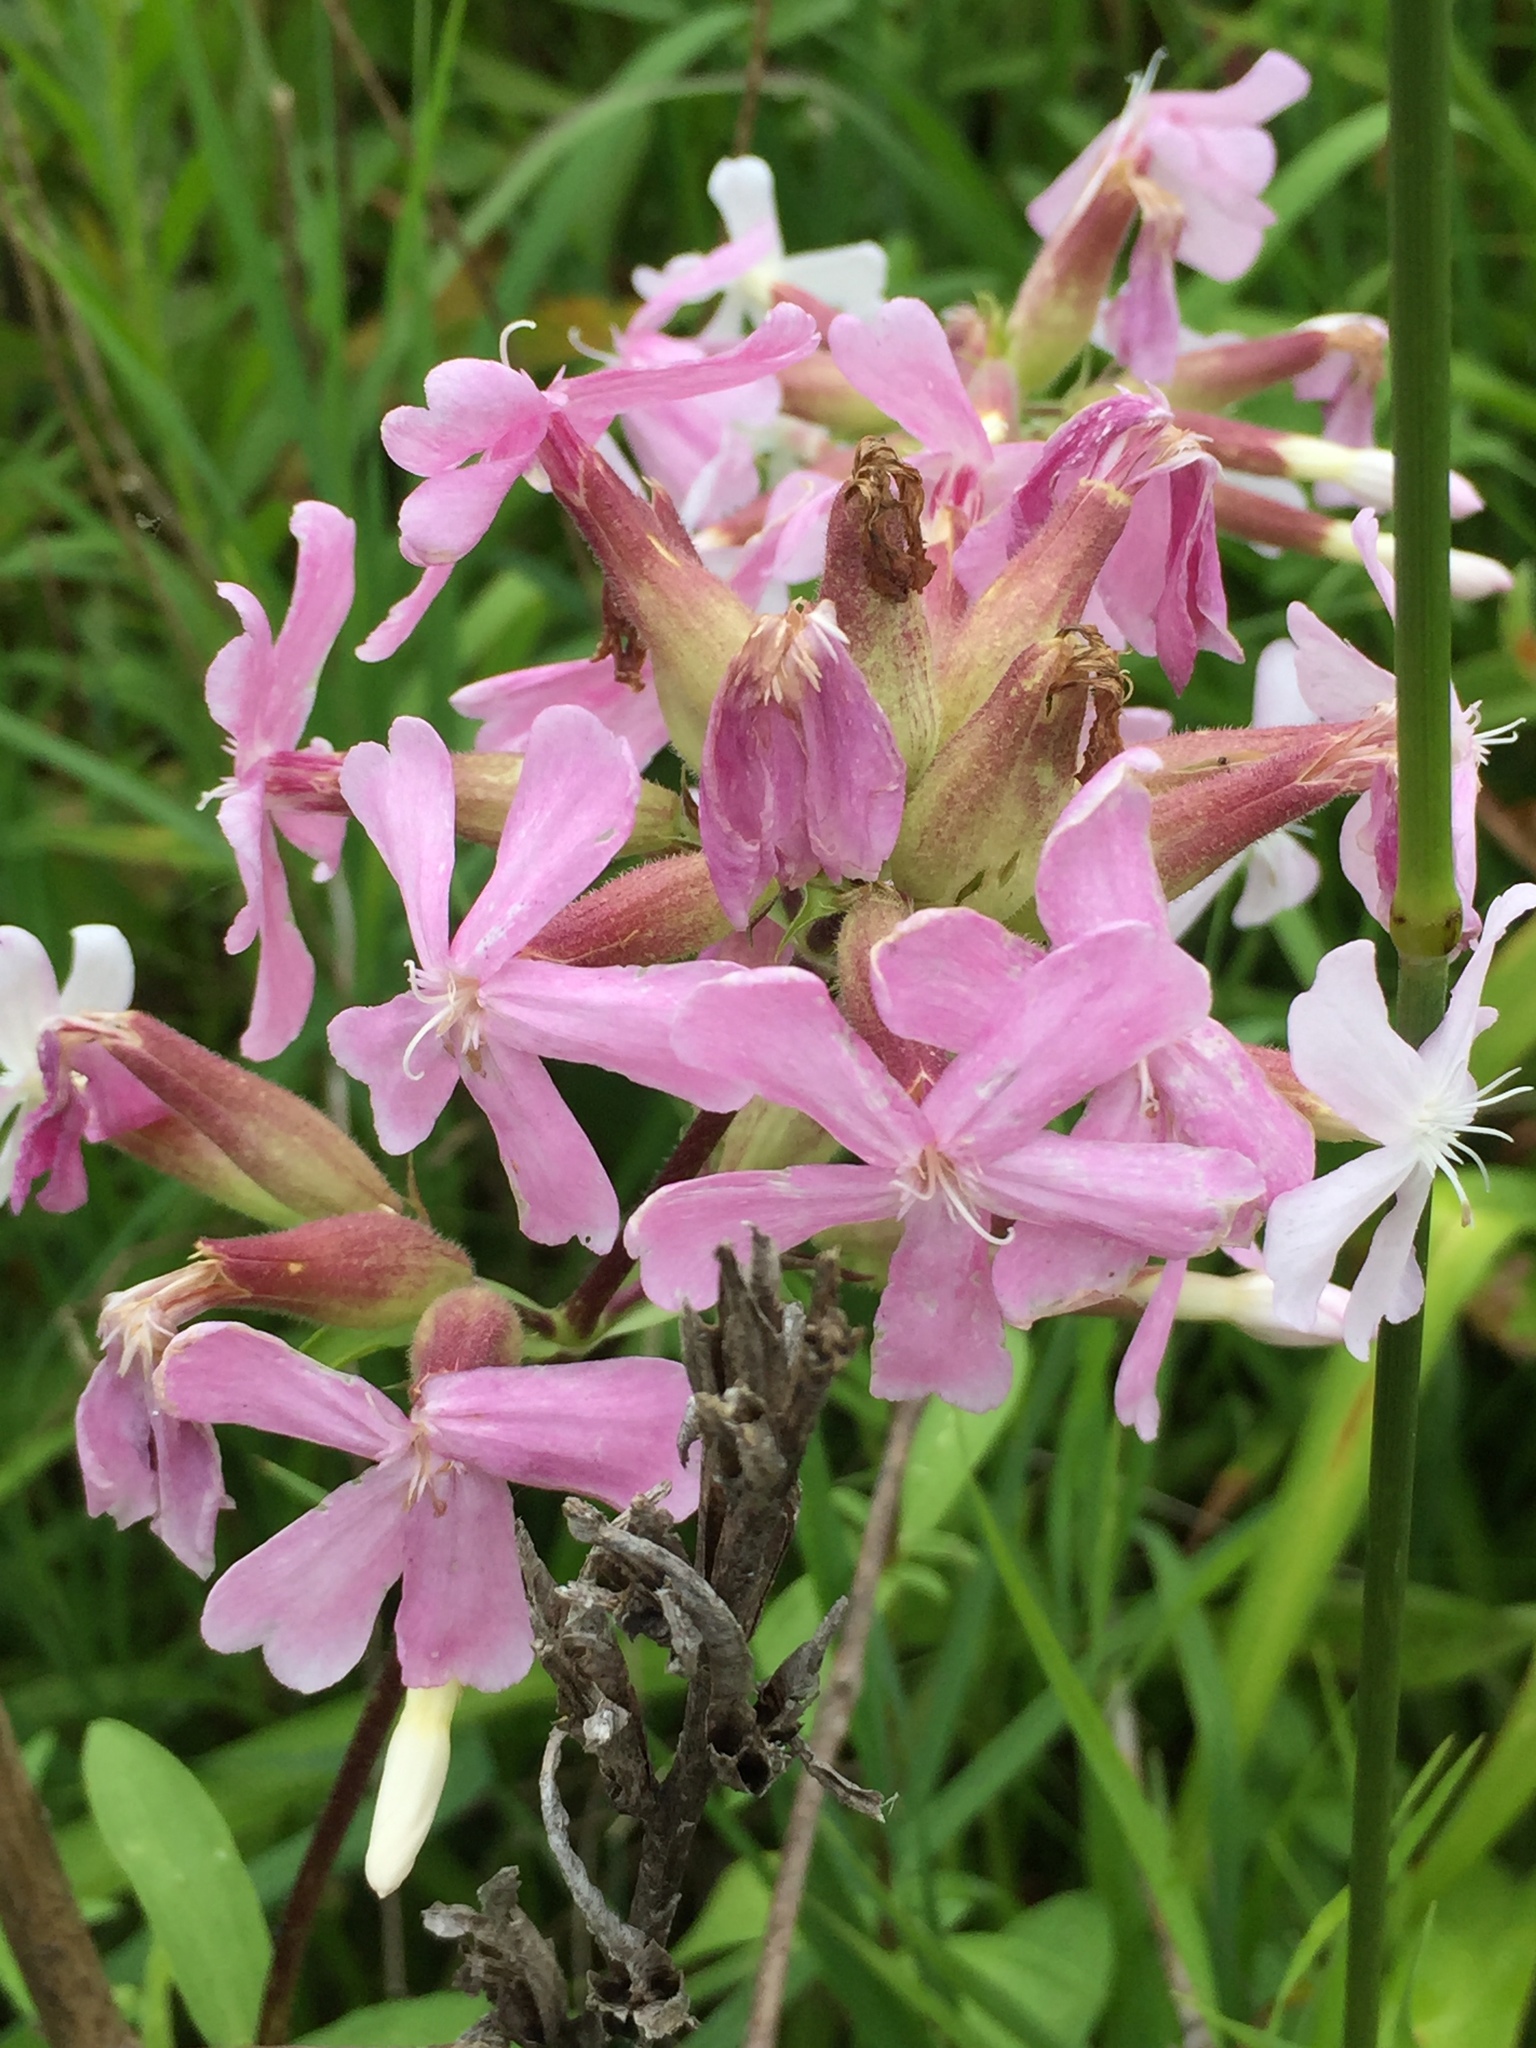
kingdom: Plantae
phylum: Tracheophyta
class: Magnoliopsida
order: Caryophyllales
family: Caryophyllaceae
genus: Saponaria
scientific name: Saponaria officinalis
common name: Soapwort
